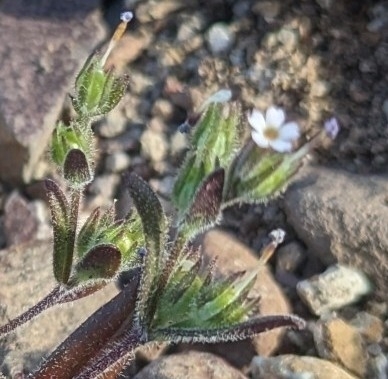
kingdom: Plantae
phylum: Tracheophyta
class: Magnoliopsida
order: Ericales
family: Polemoniaceae
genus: Phlox
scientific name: Phlox gracilis
